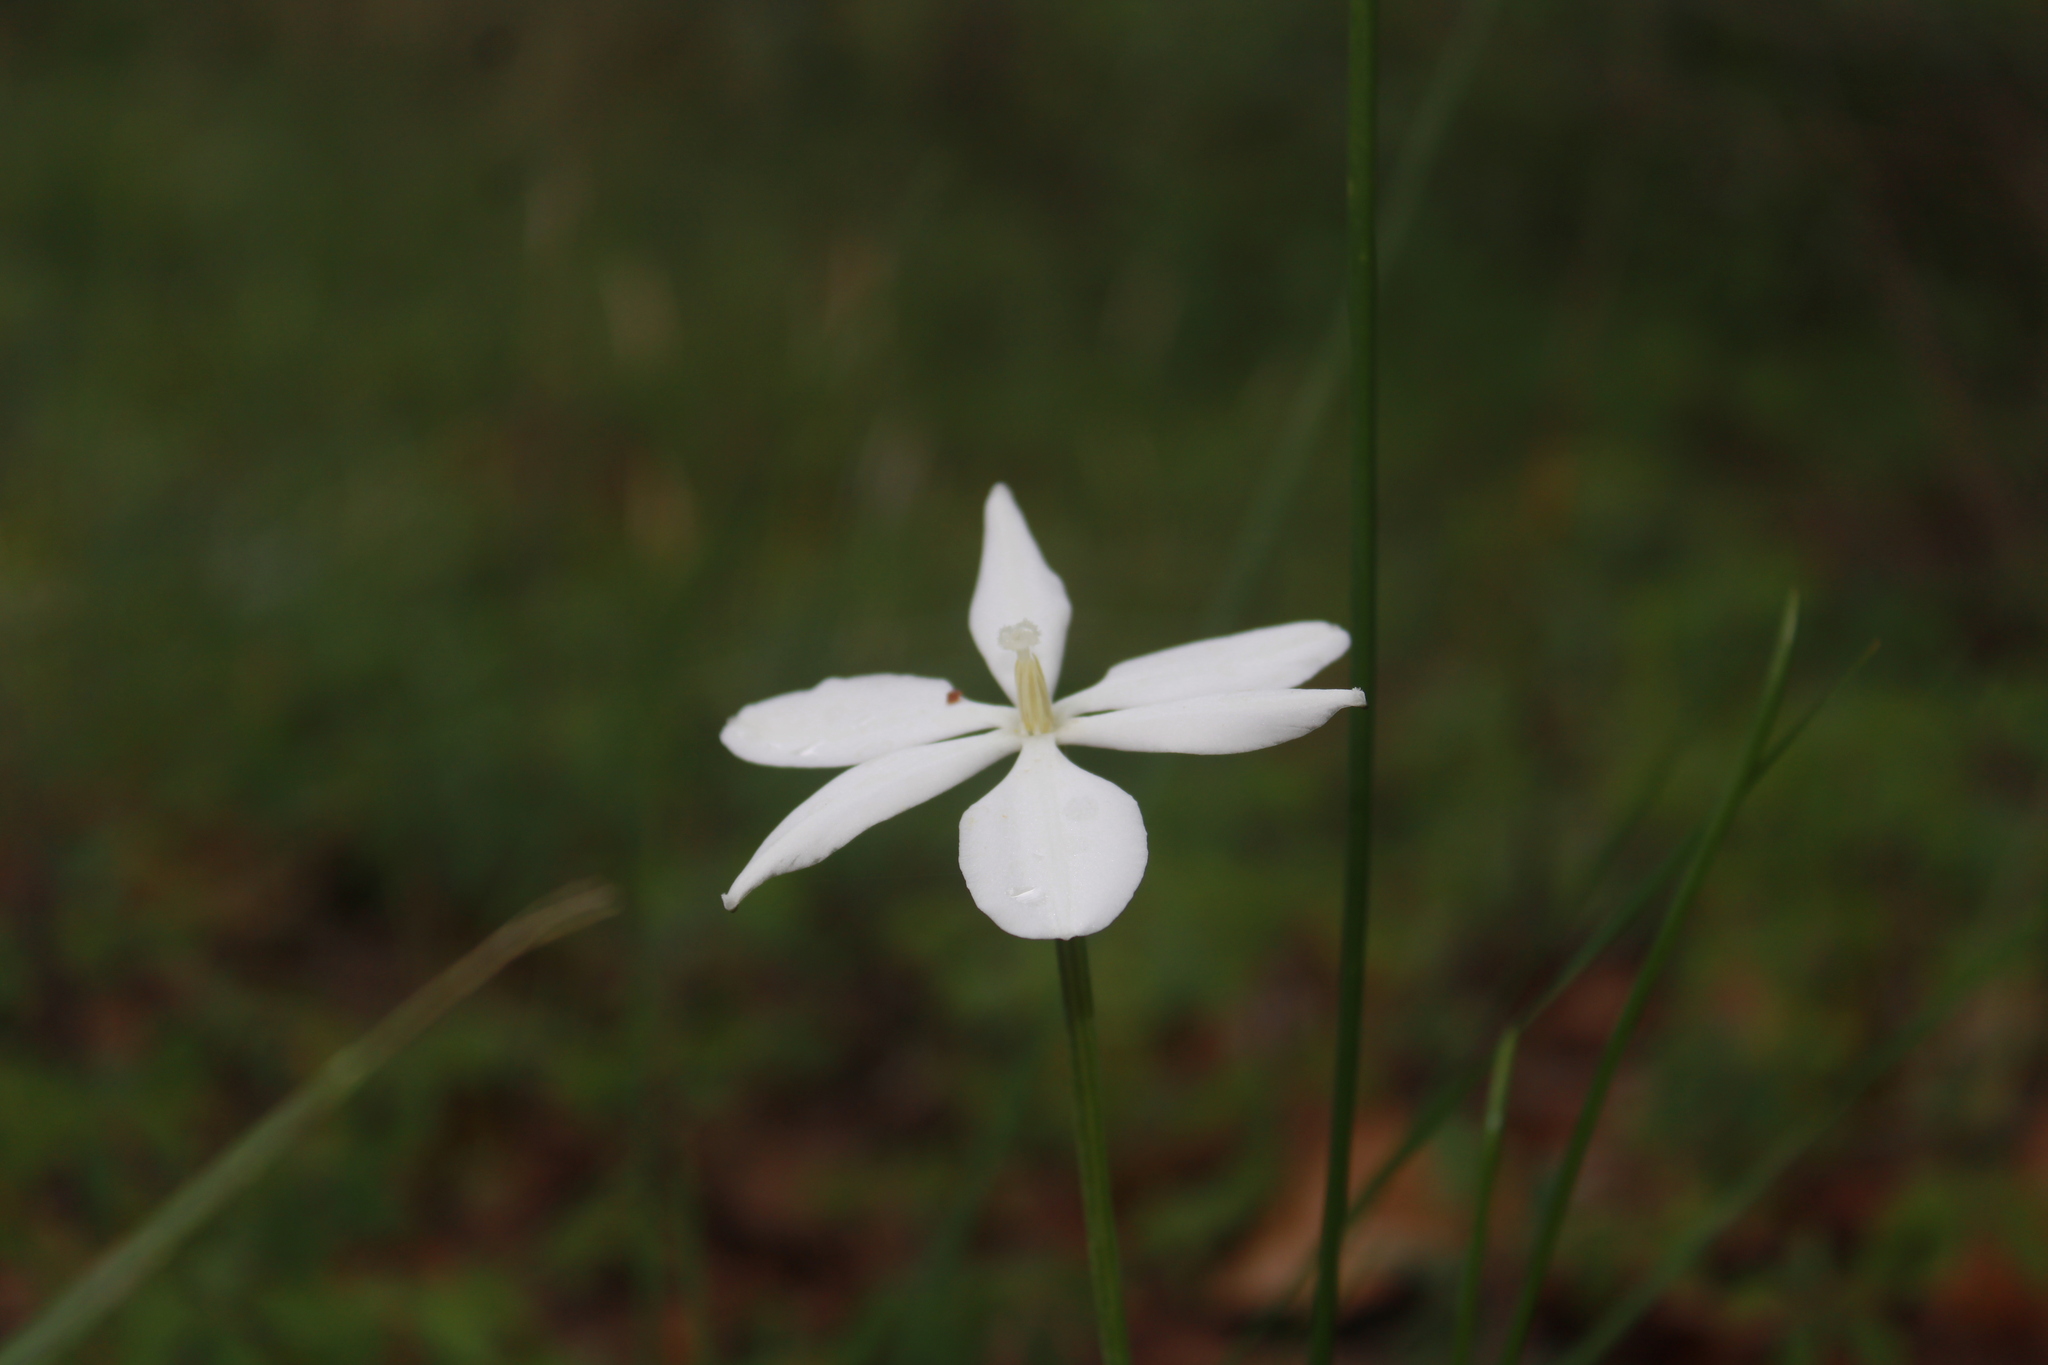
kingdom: Plantae
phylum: Tracheophyta
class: Liliopsida
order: Asparagales
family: Asparagaceae
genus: Milla
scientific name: Milla biflora
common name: Mexican-star
